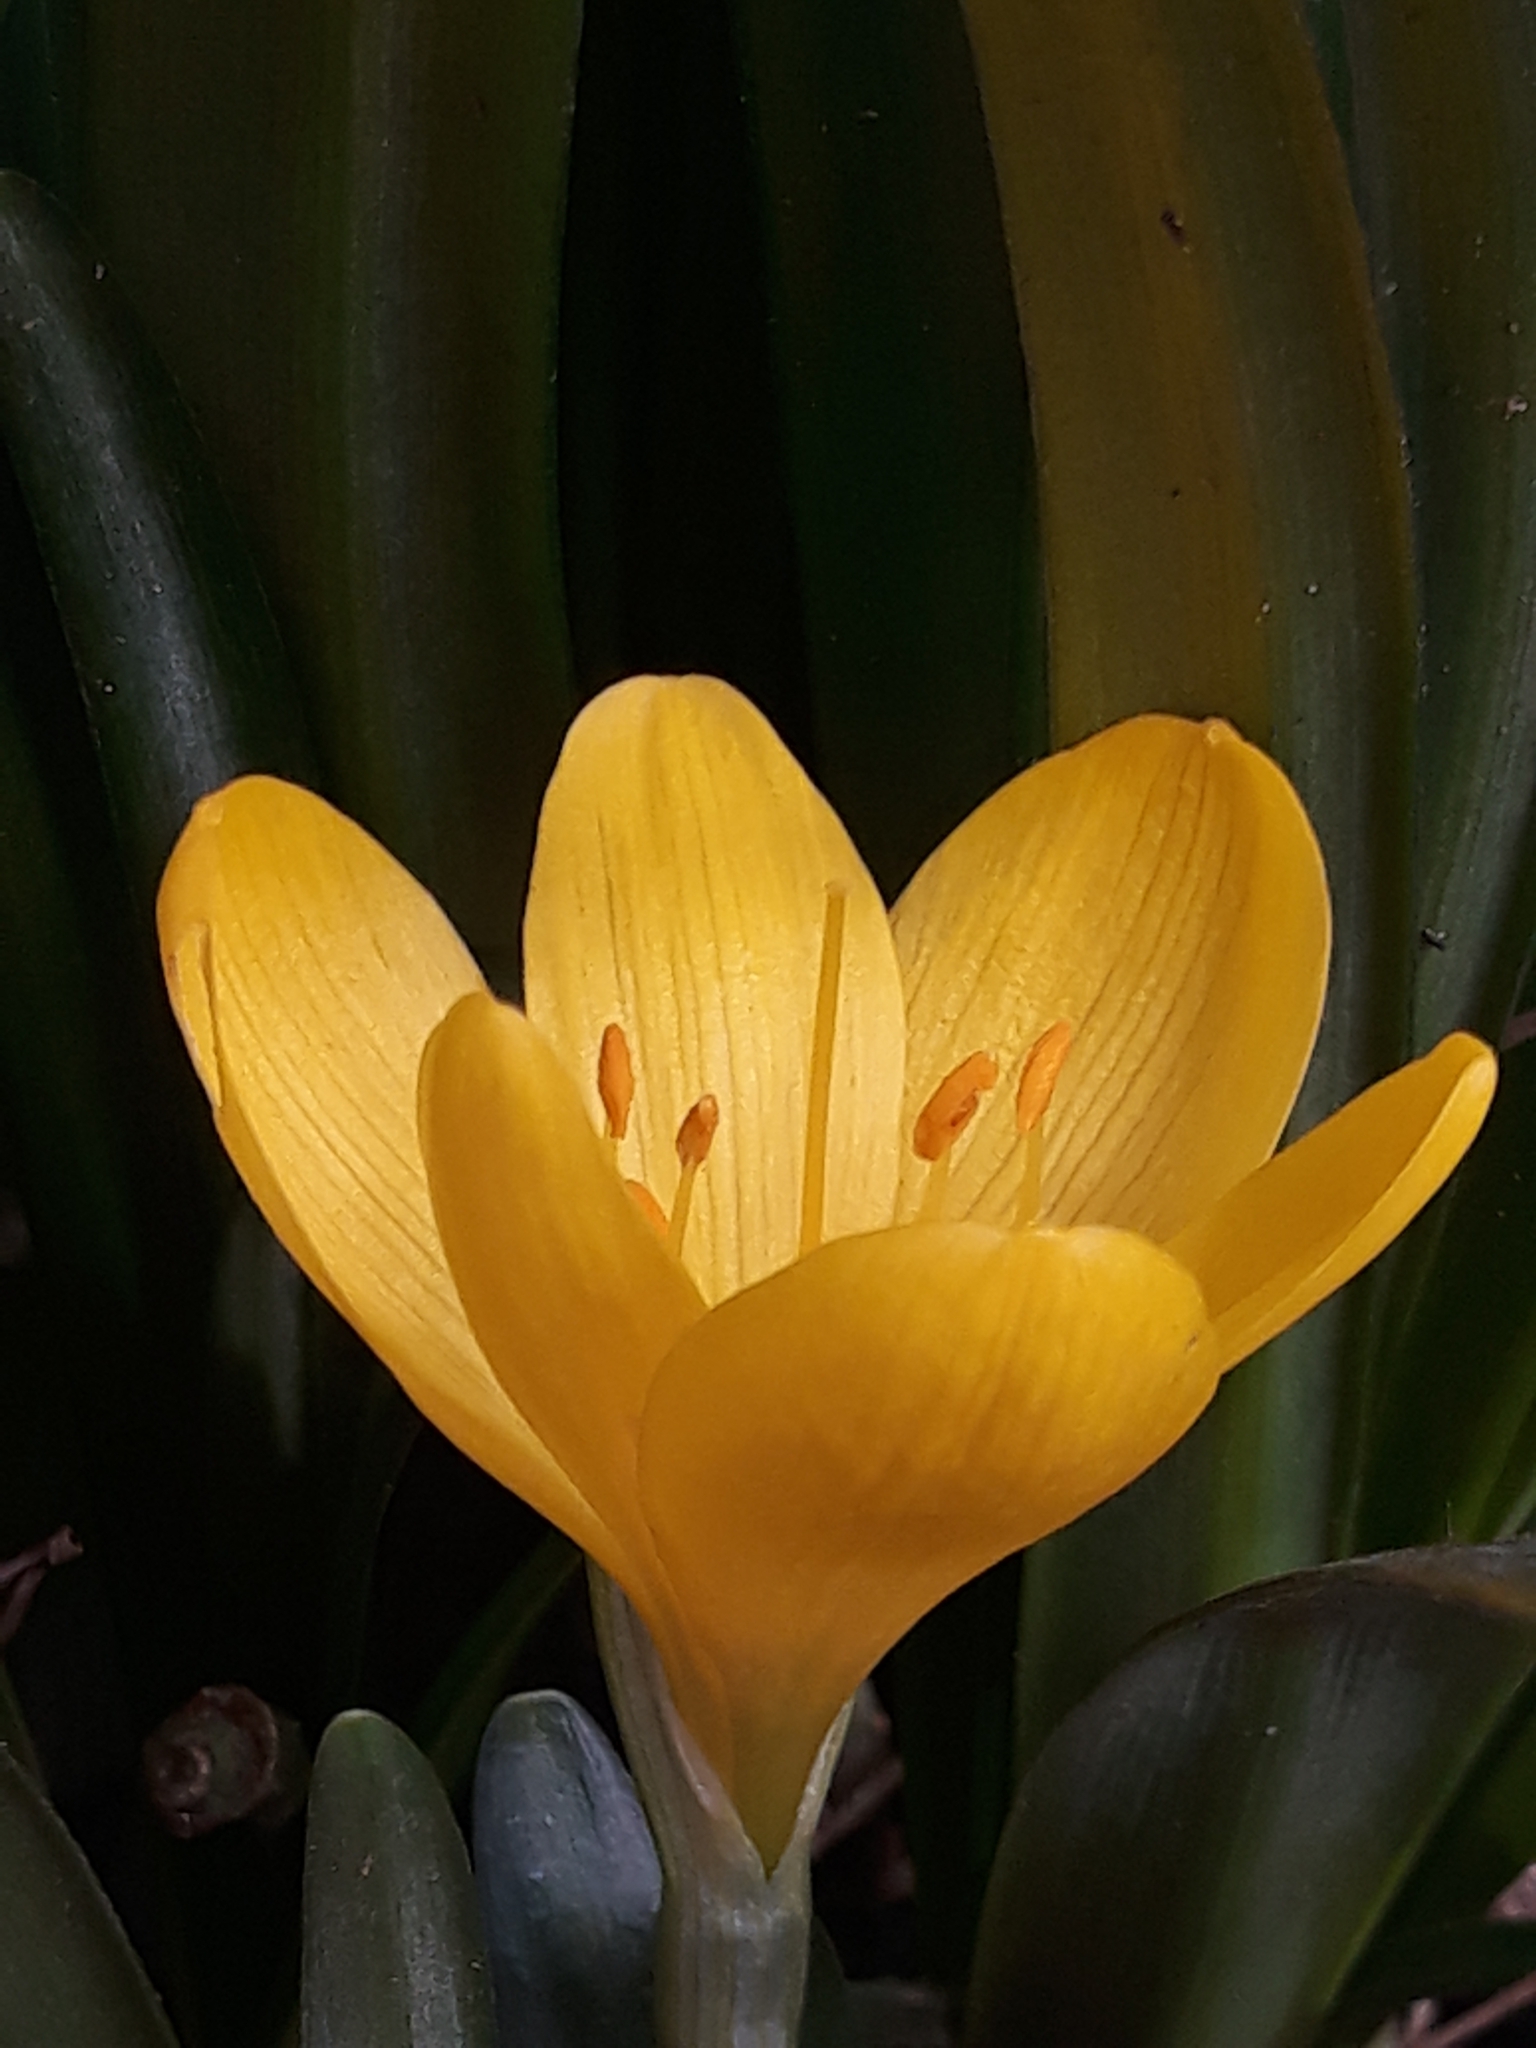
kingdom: Plantae
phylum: Tracheophyta
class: Liliopsida
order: Asparagales
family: Amaryllidaceae
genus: Sternbergia
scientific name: Sternbergia lutea
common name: Winter daffodil
